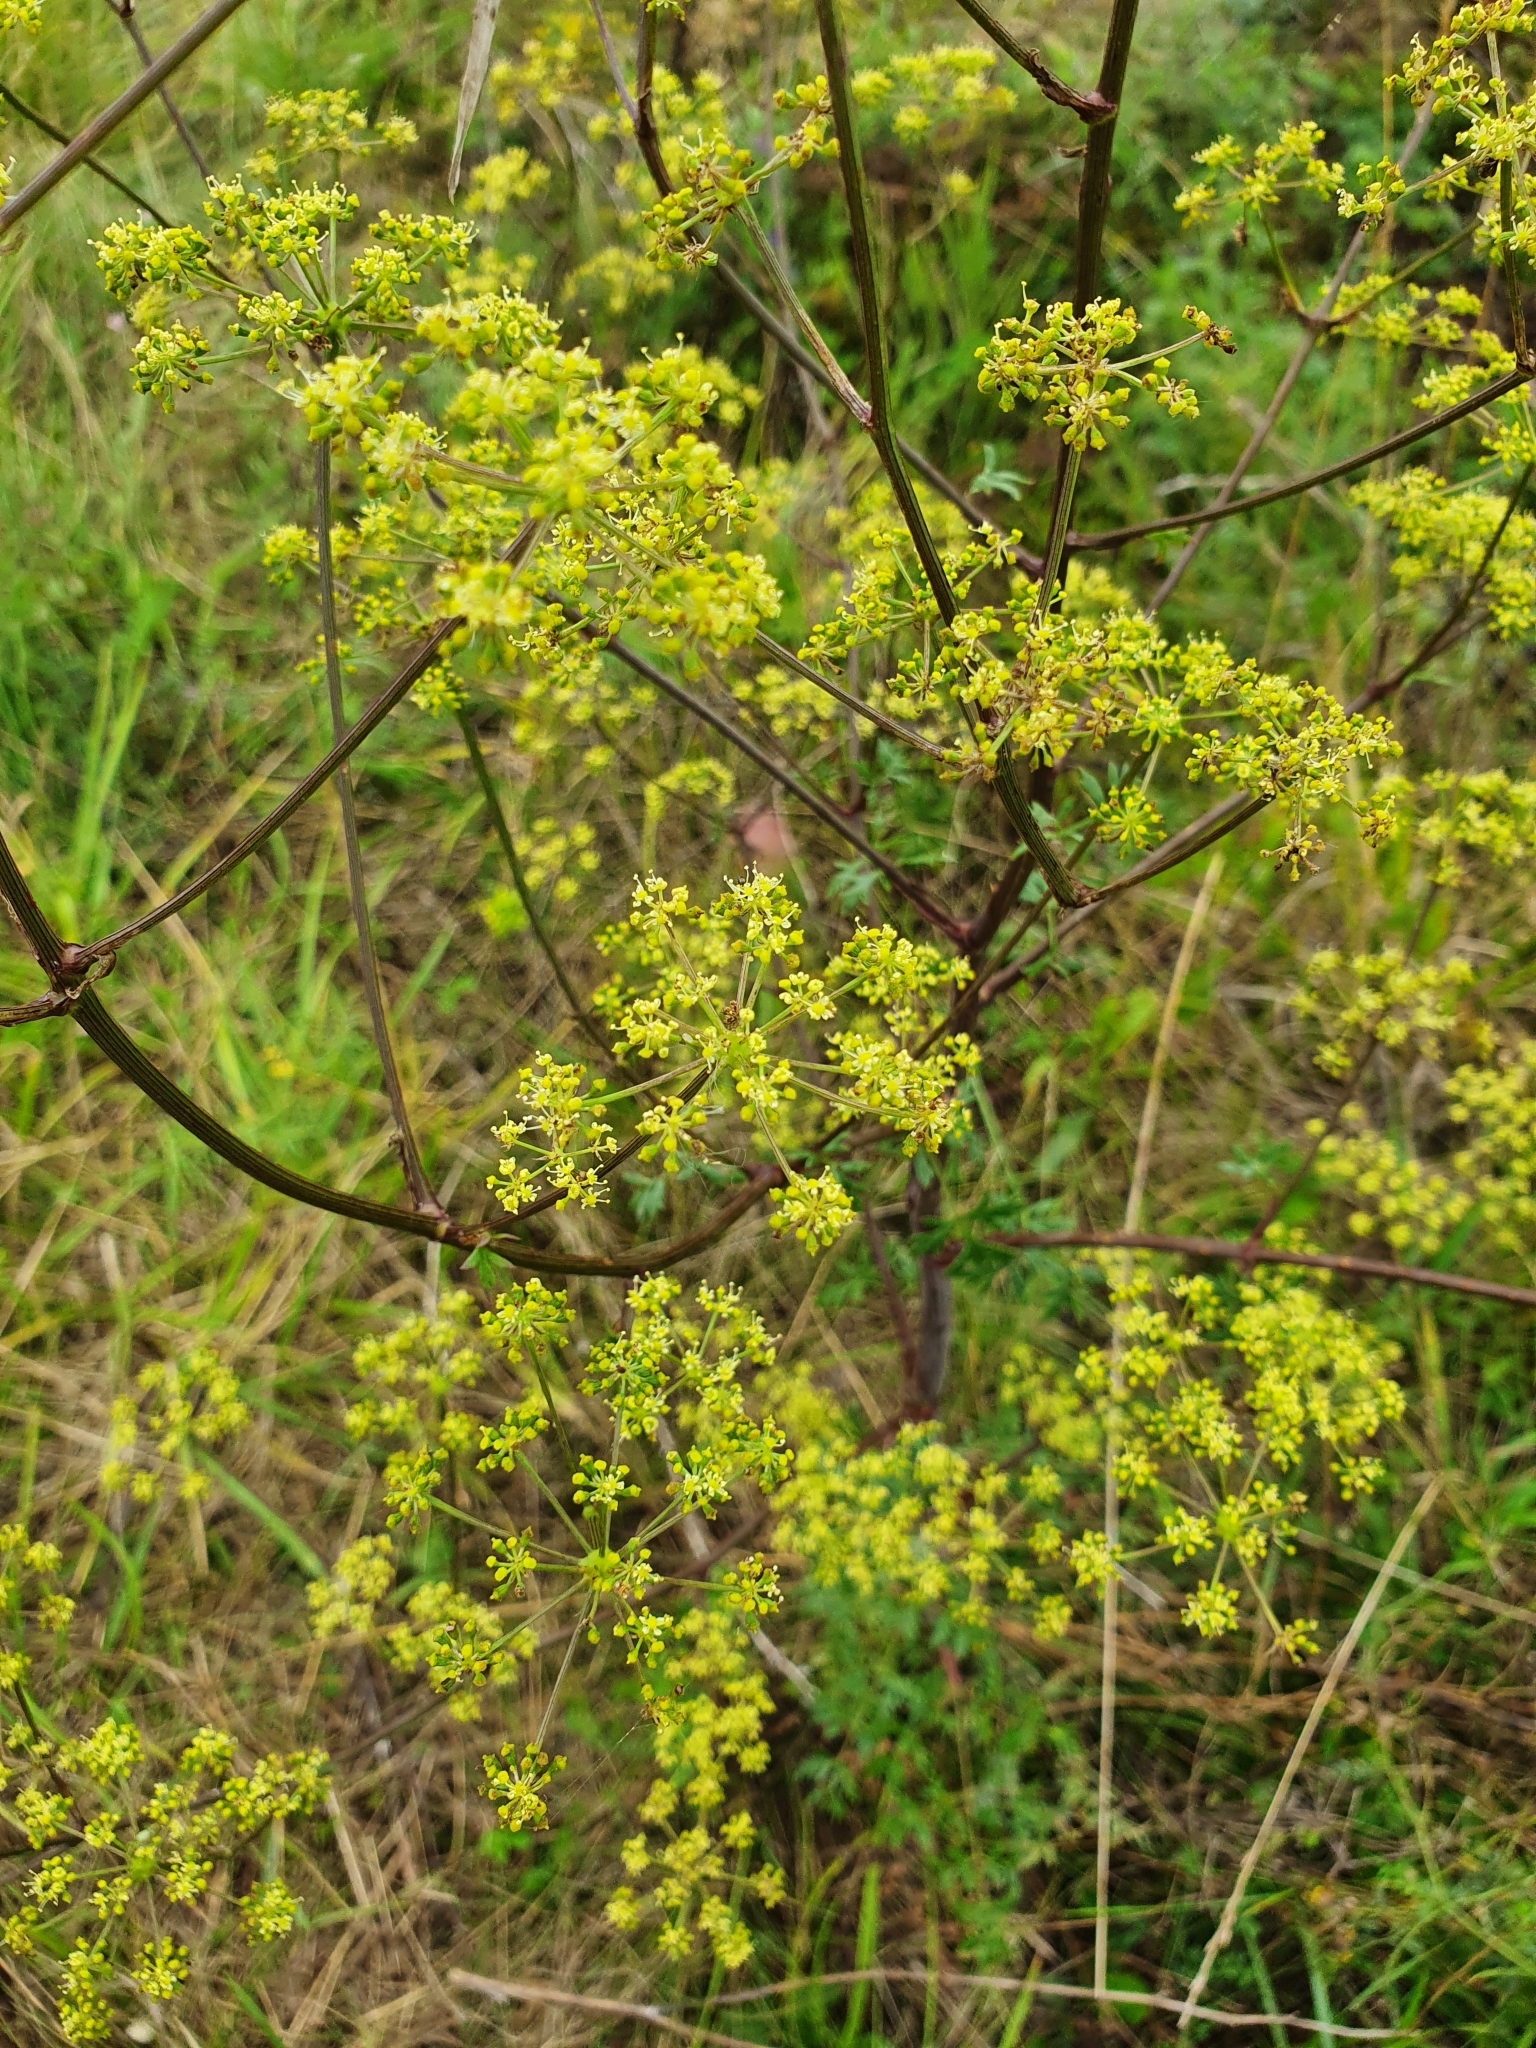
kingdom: Plantae
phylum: Tracheophyta
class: Magnoliopsida
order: Apiales
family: Apiaceae
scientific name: Apiaceae
